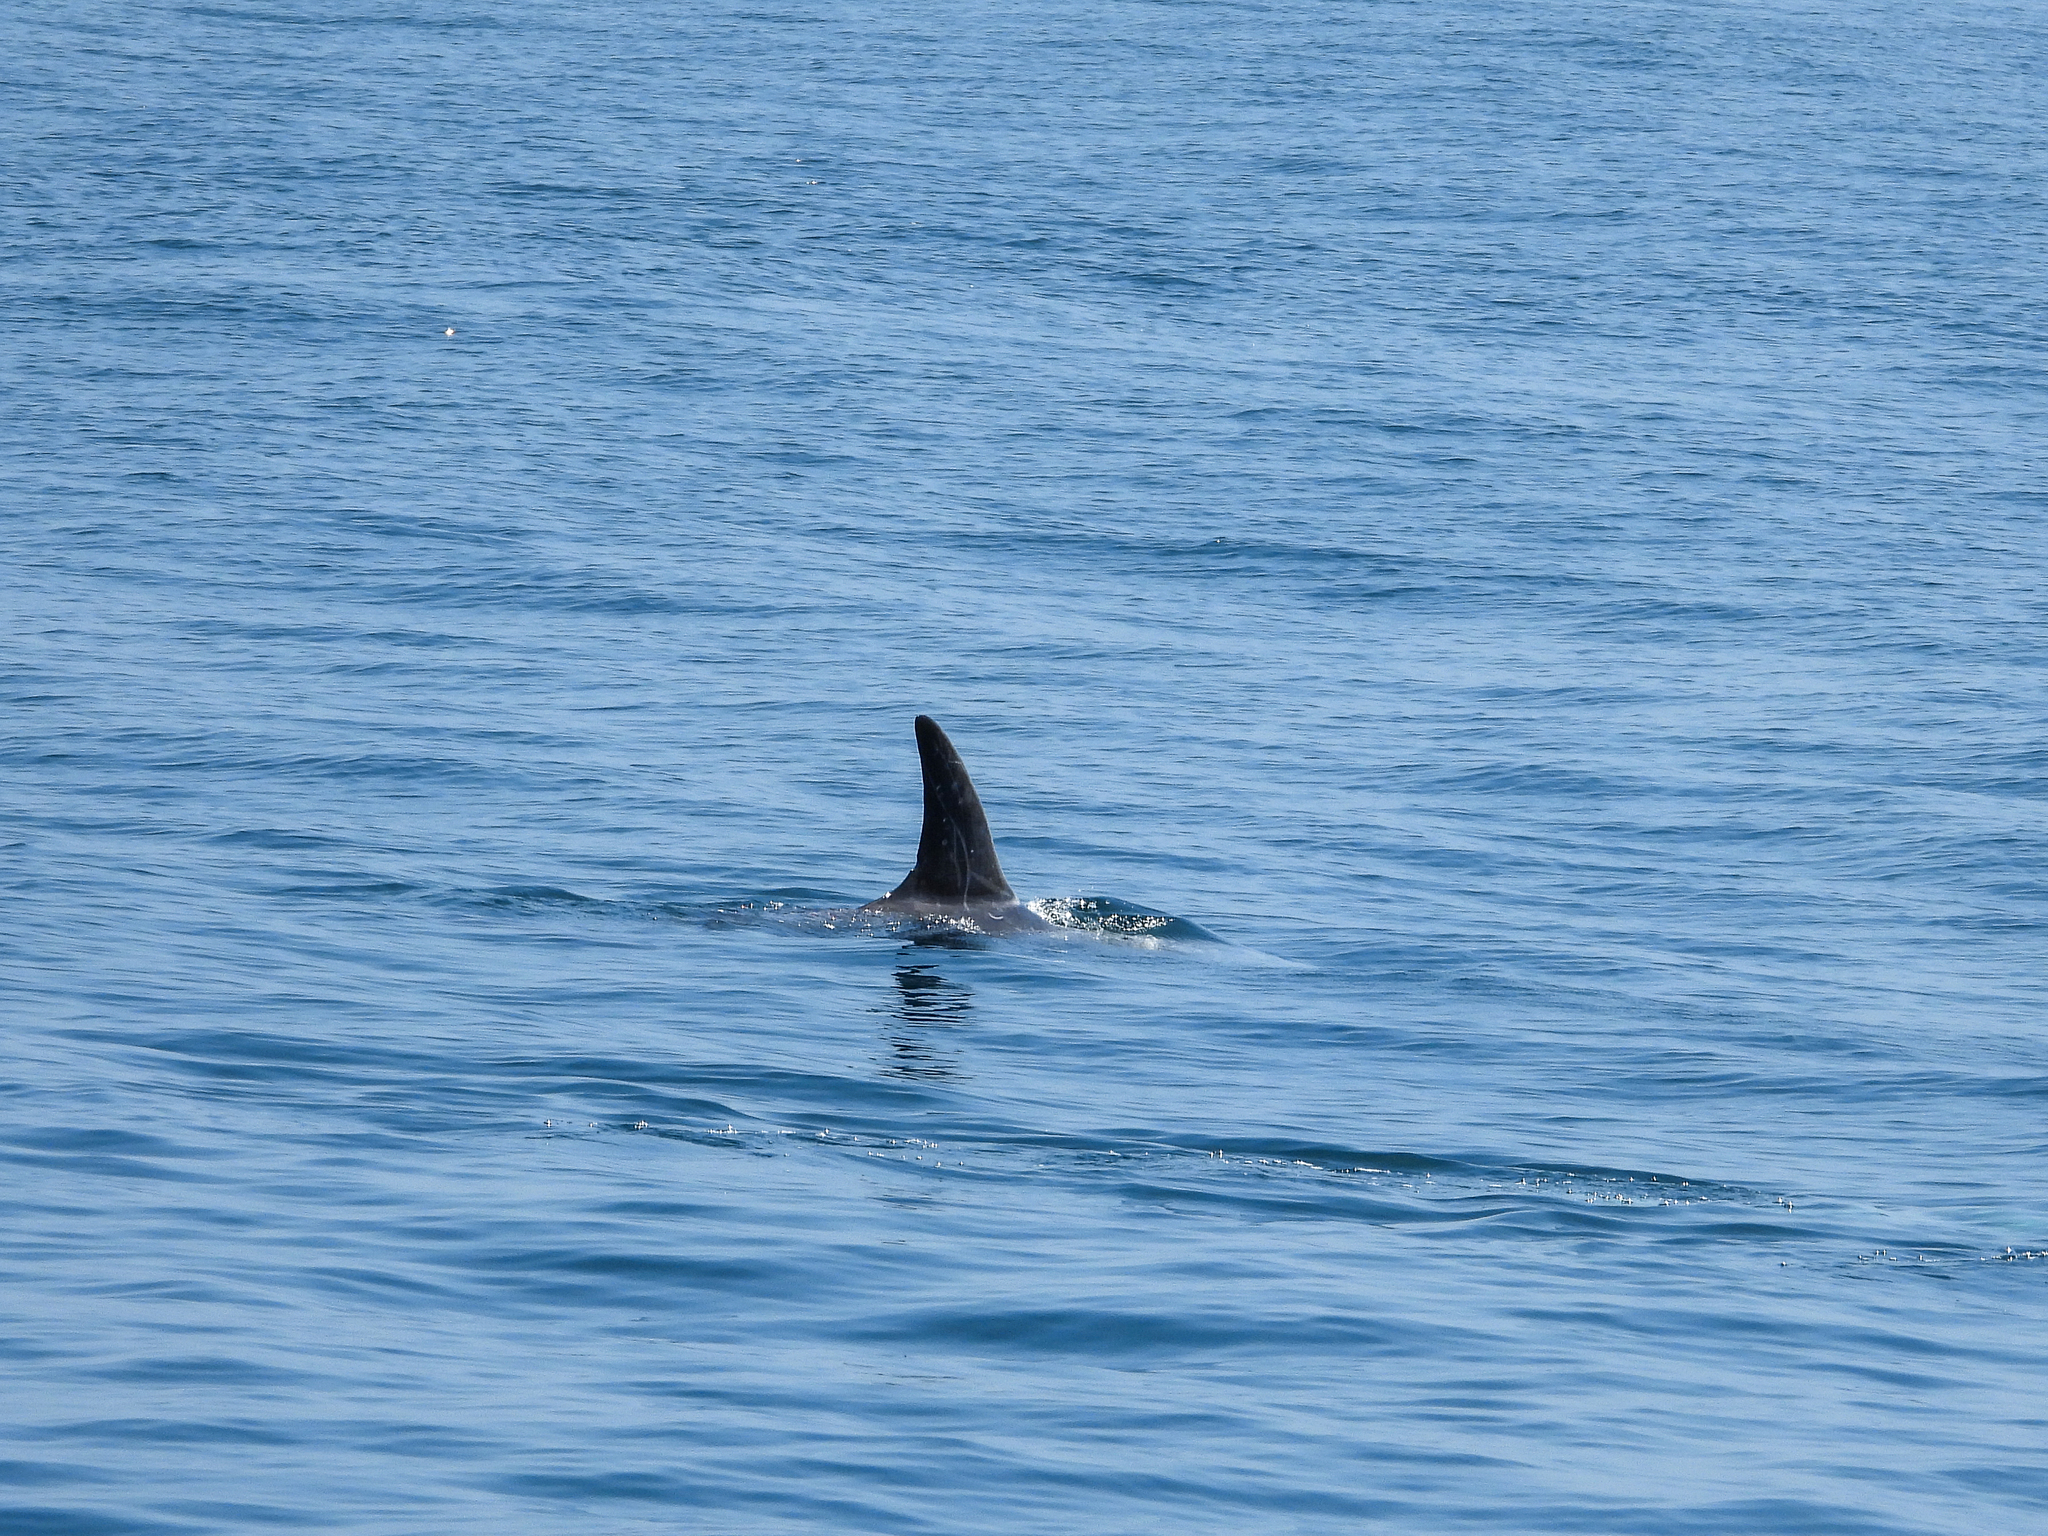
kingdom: Animalia
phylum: Chordata
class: Mammalia
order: Cetacea
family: Delphinidae
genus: Grampus
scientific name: Grampus griseus
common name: Risso's dolphin
